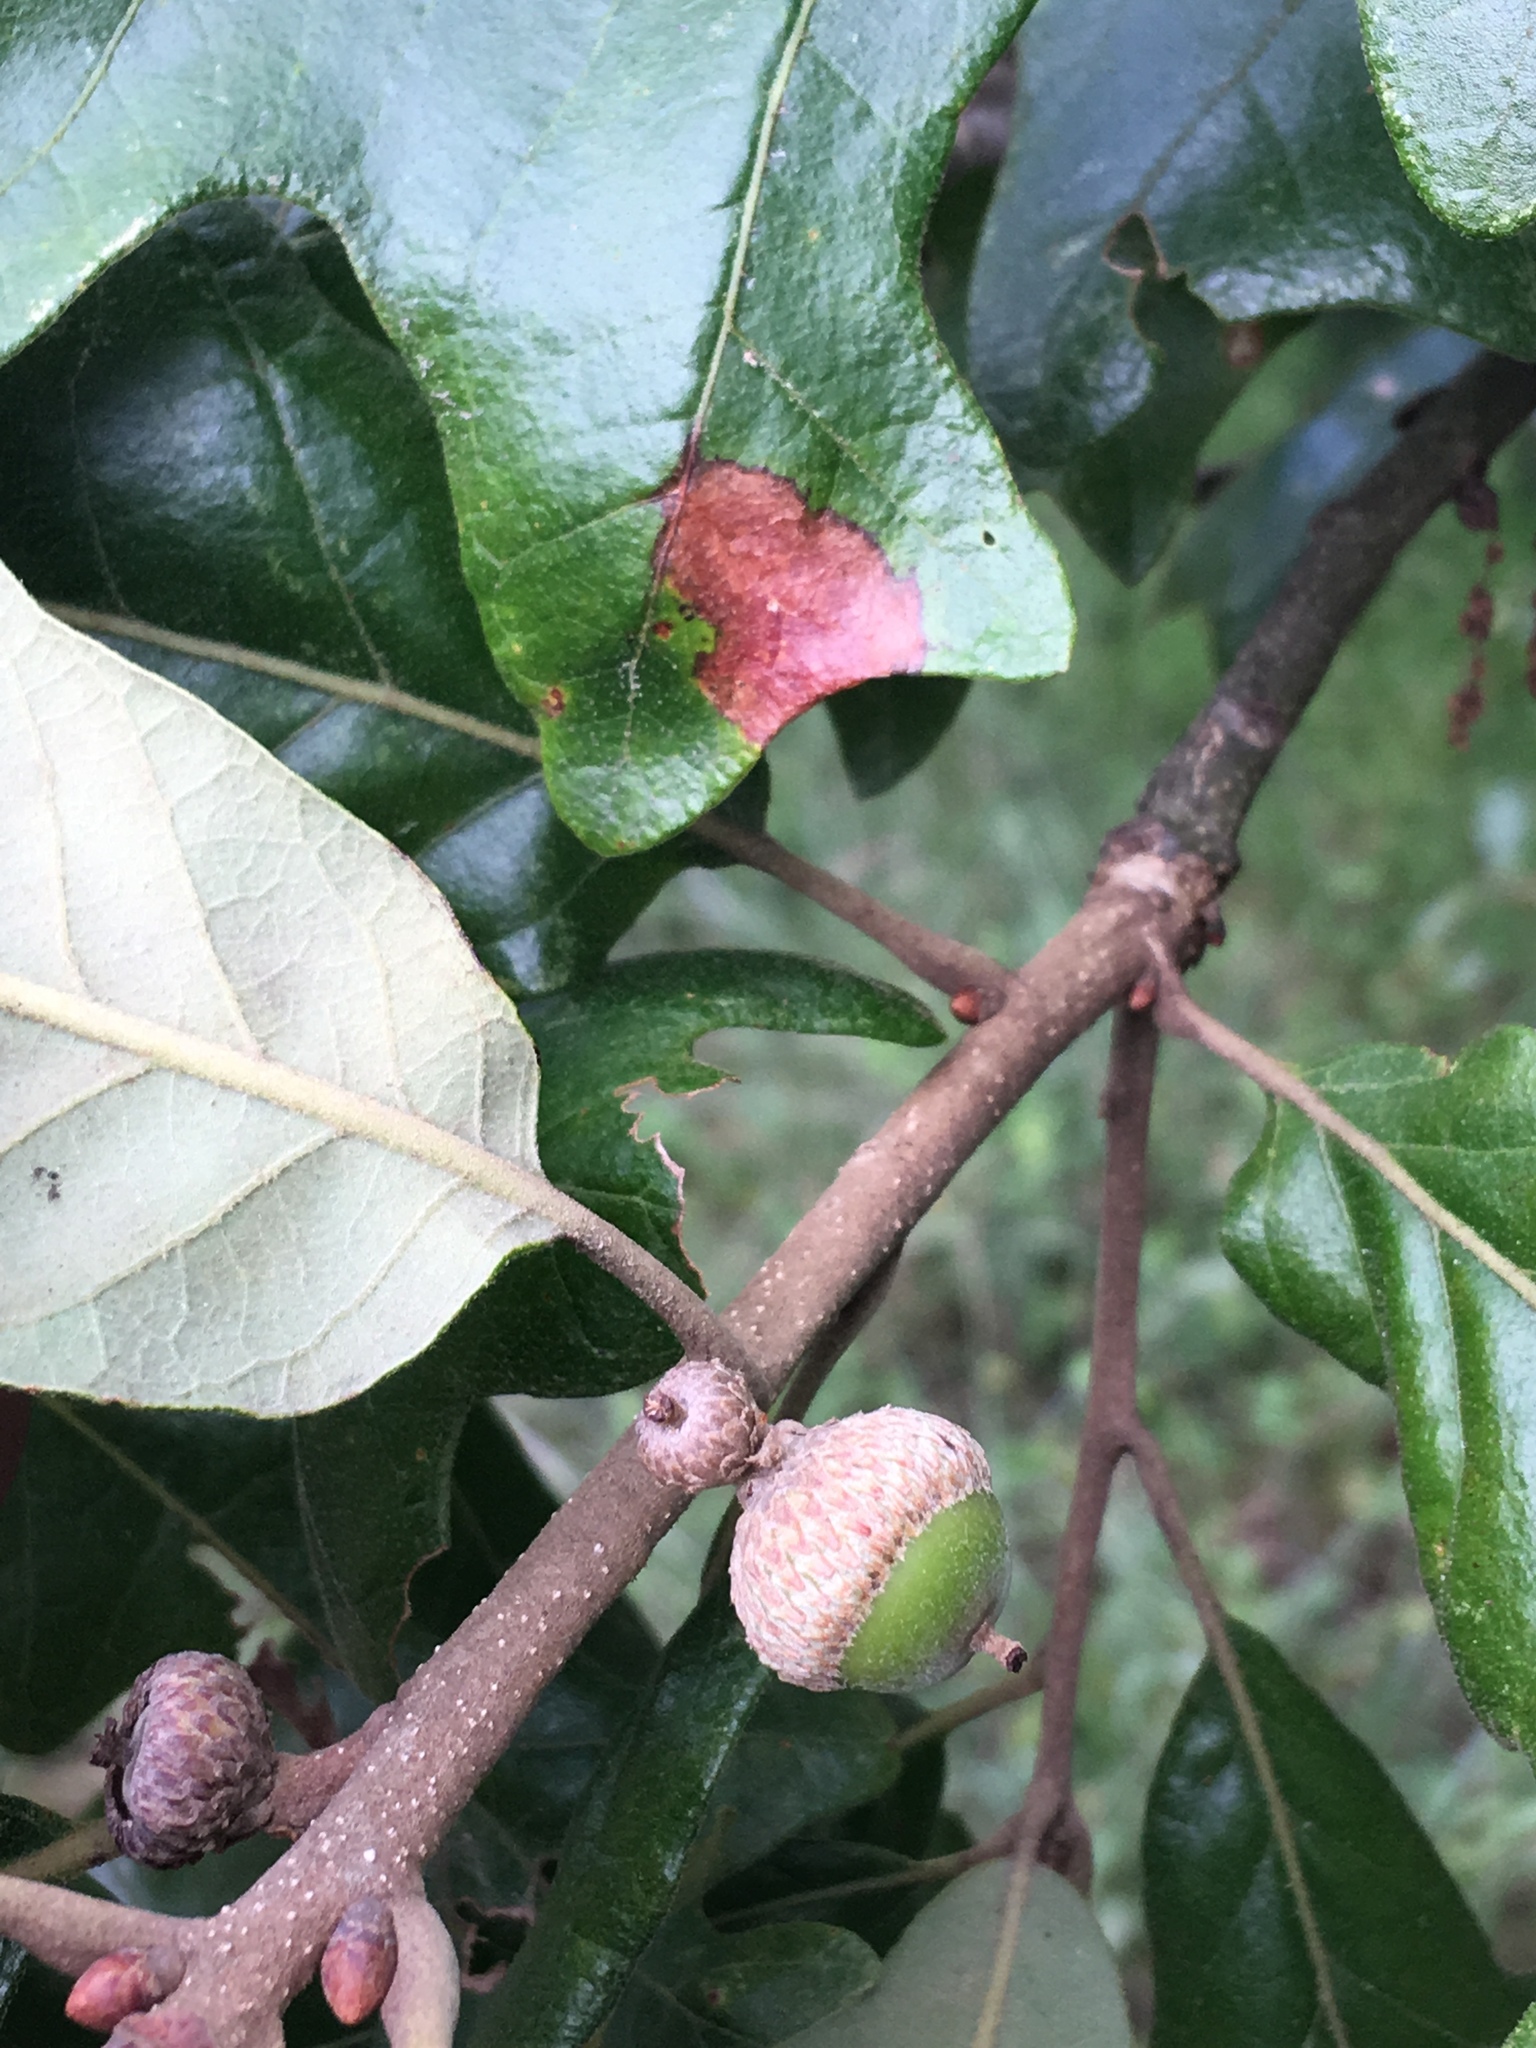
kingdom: Plantae
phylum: Tracheophyta
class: Magnoliopsida
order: Fagales
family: Fagaceae
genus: Quercus
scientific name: Quercus stellata
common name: Post oak
